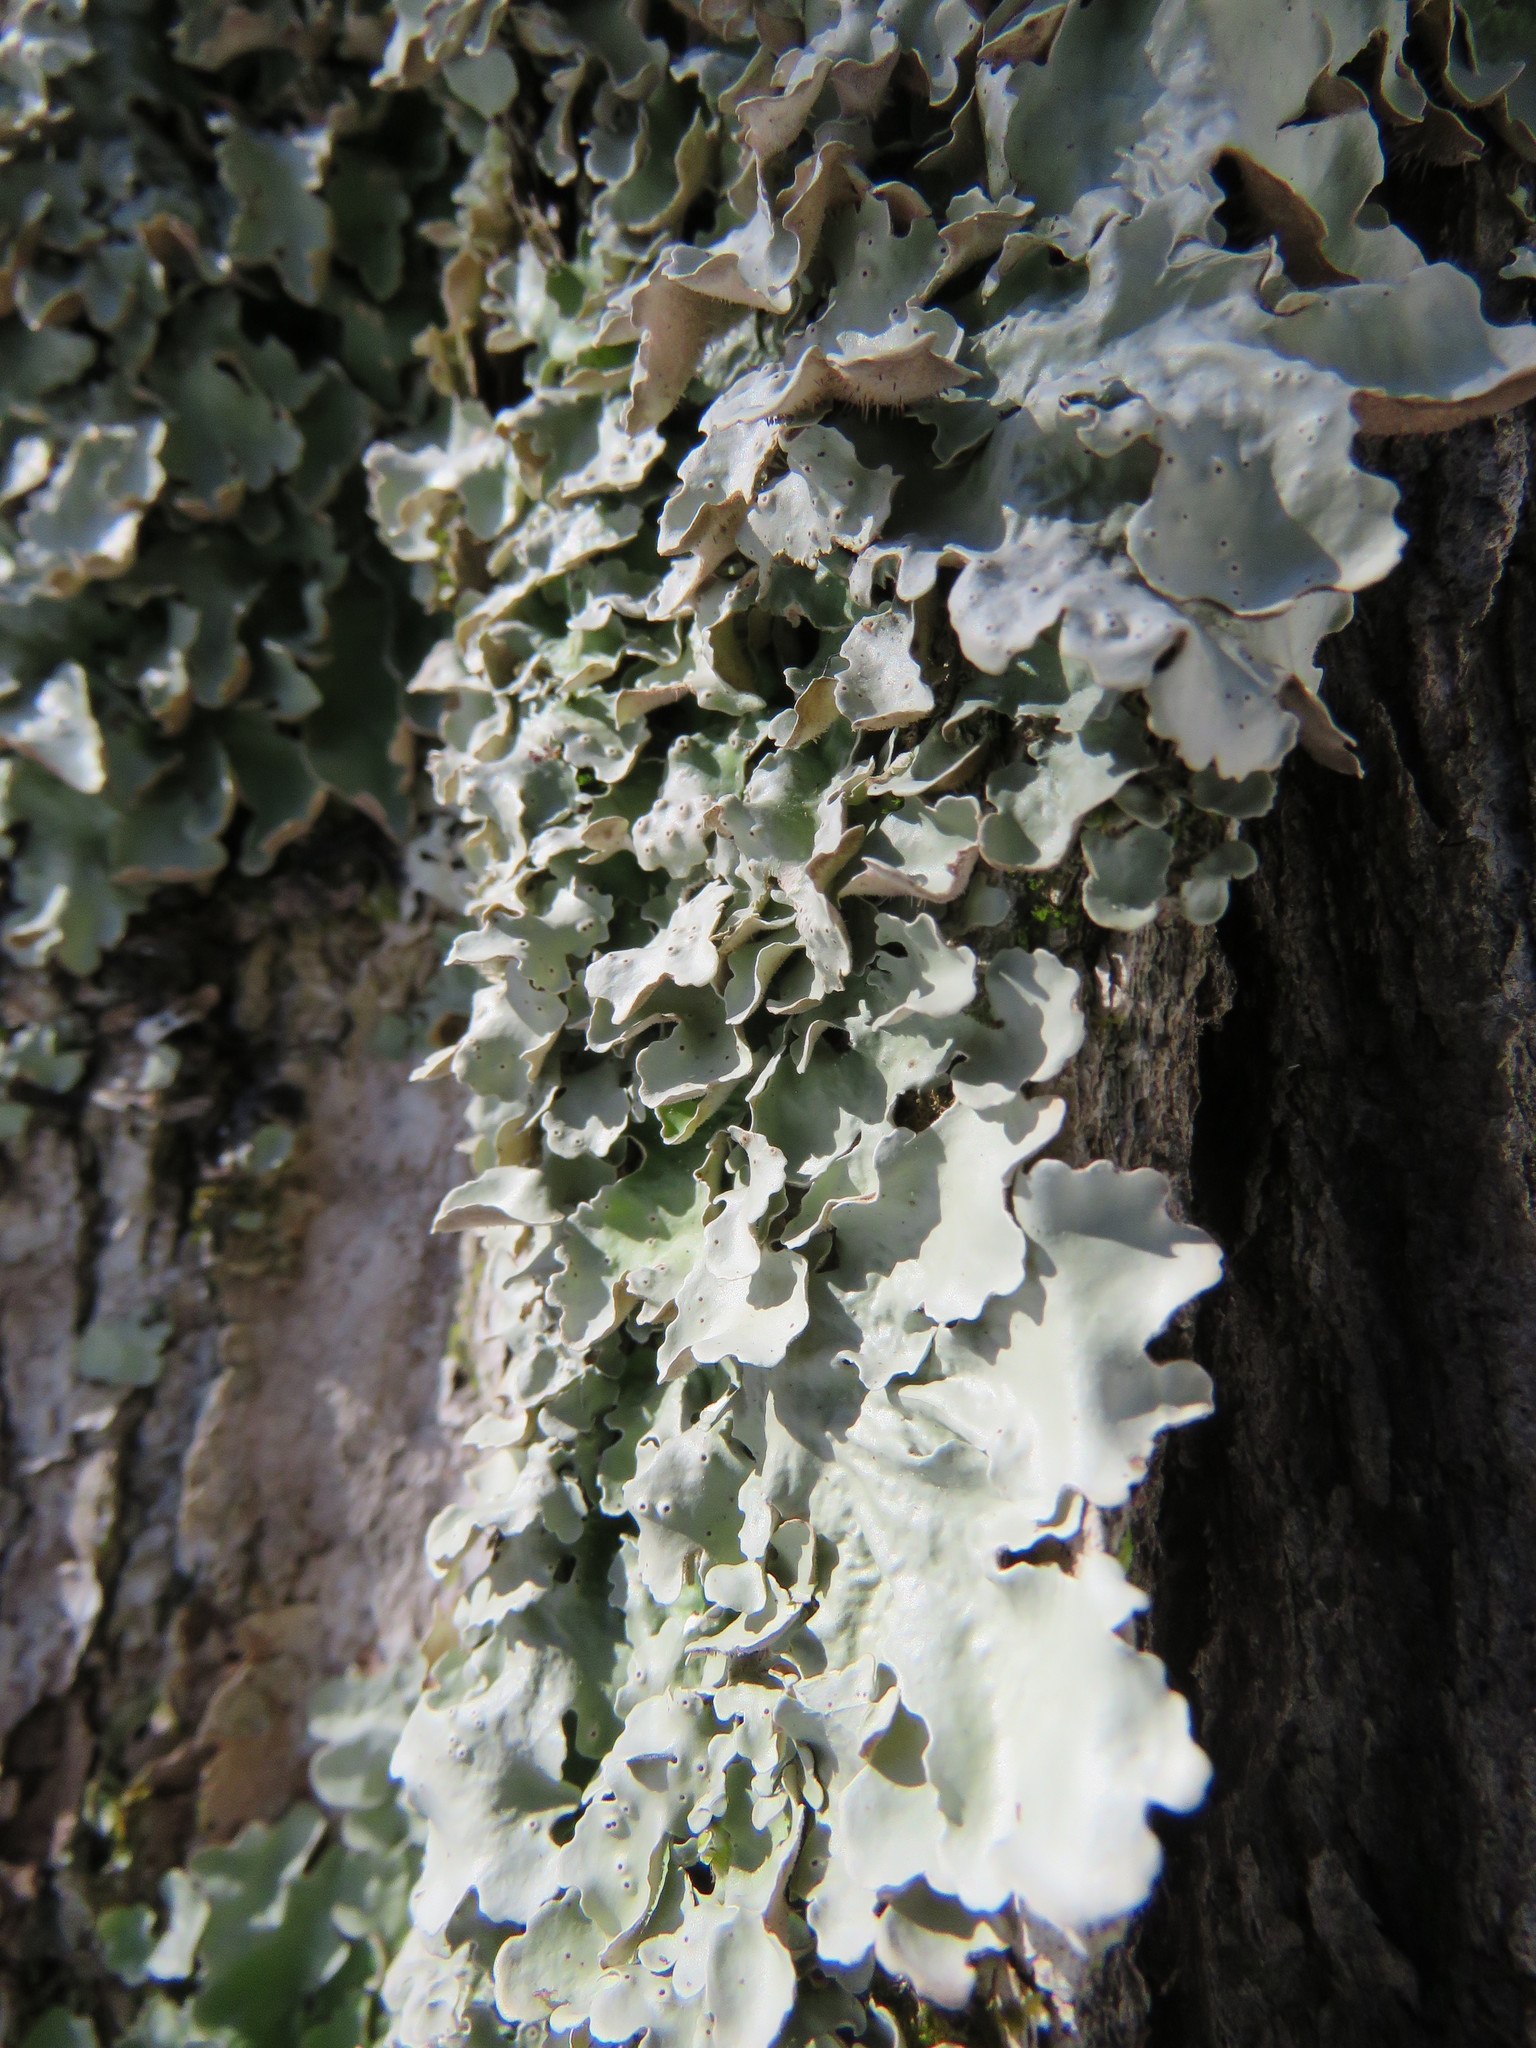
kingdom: Fungi
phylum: Ascomycota
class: Lecanoromycetes
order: Peltigerales
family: Lobariaceae
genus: Ricasolia
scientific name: Ricasolia quercizans
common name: Smooth lungwort
